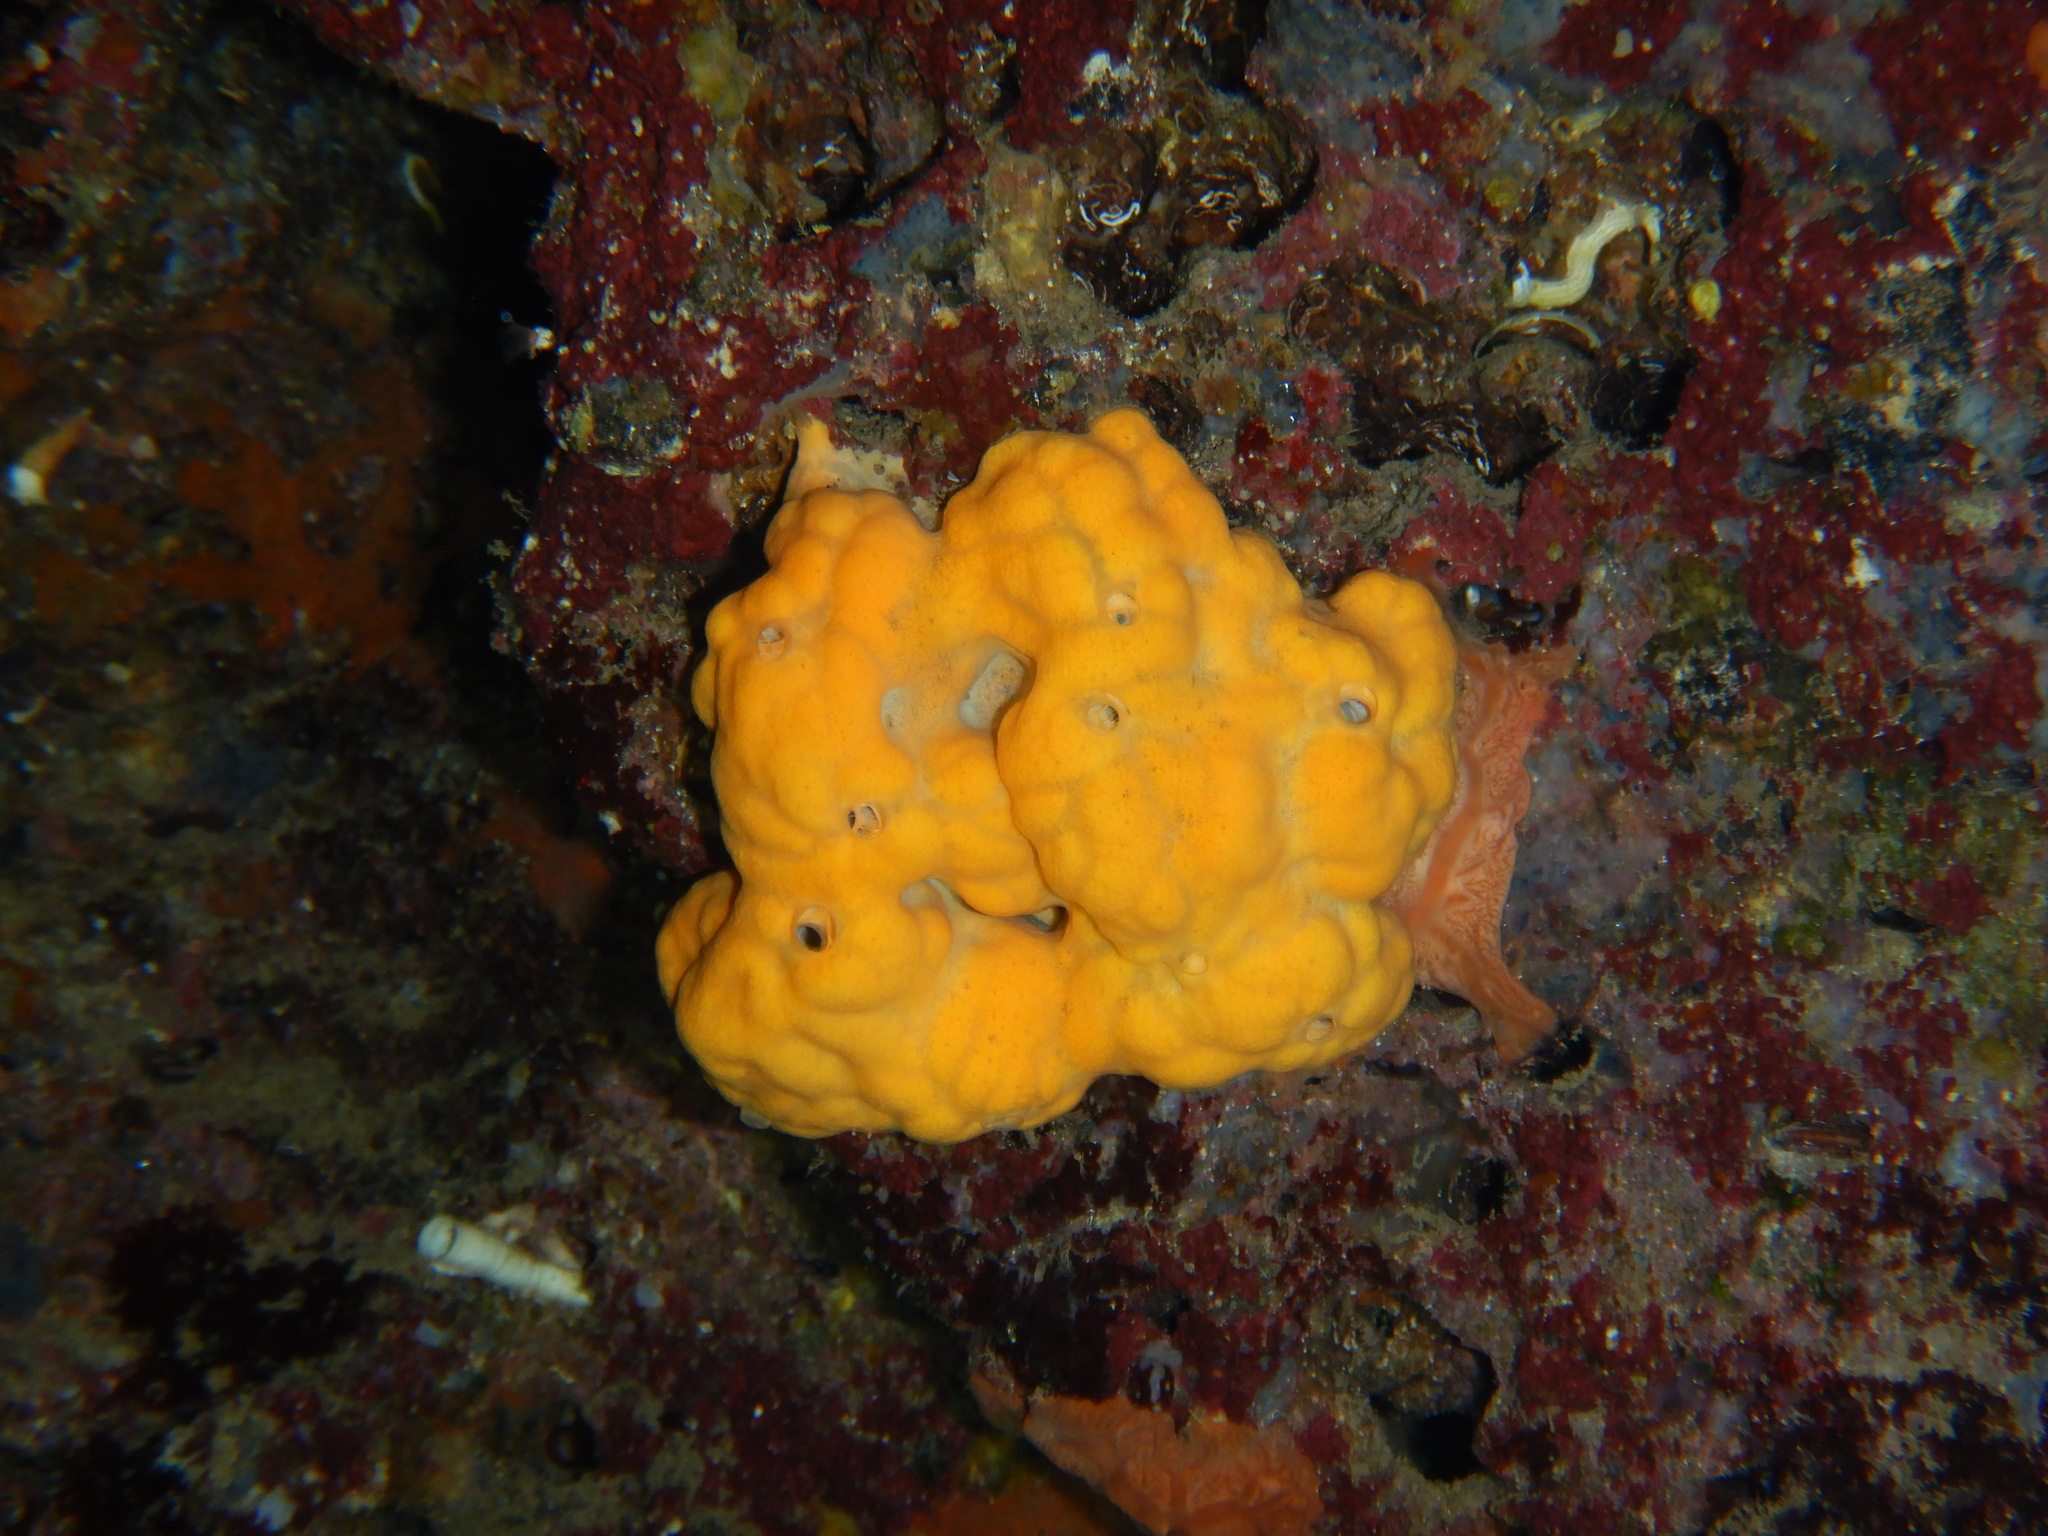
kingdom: Animalia
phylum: Porifera
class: Demospongiae
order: Agelasida
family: Agelasidae
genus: Agelas
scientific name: Agelas oroides
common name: Maltese sponge
